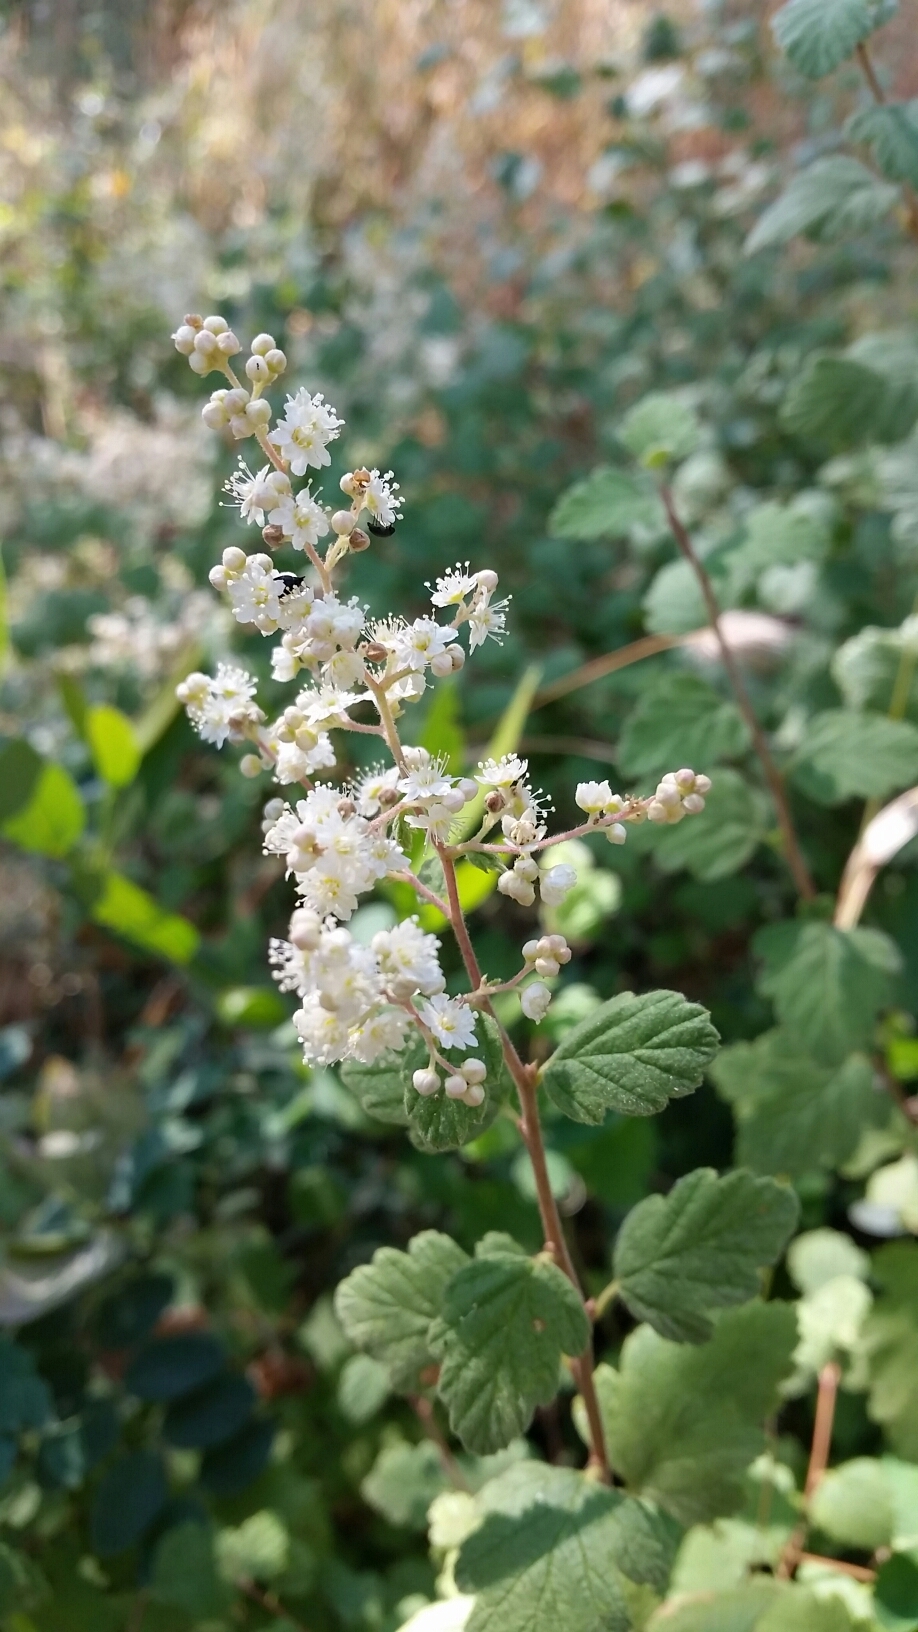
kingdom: Plantae
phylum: Tracheophyta
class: Magnoliopsida
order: Rosales
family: Rosaceae
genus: Holodiscus
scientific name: Holodiscus discolor
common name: Oceanspray
